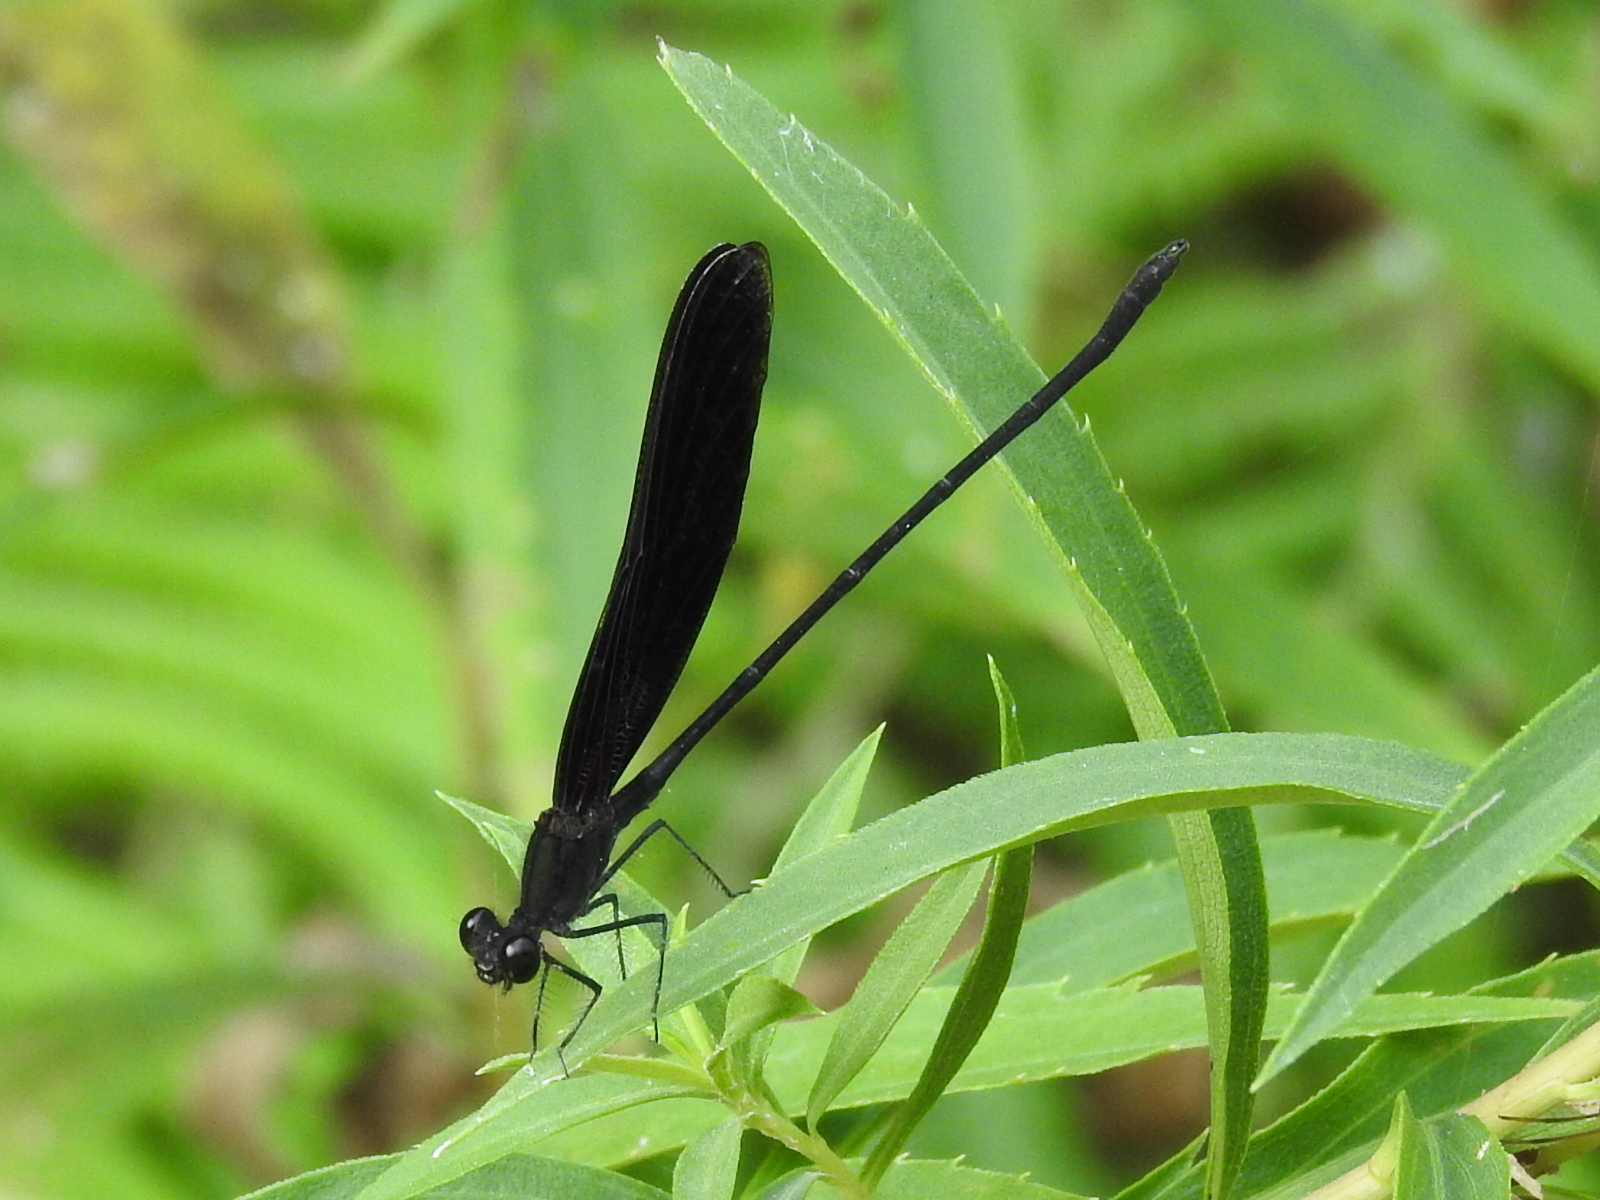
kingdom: Animalia
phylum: Arthropoda
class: Insecta
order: Odonata
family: Calopterygidae
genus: Hetaerina
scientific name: Hetaerina titia
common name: Smoky rubyspot
